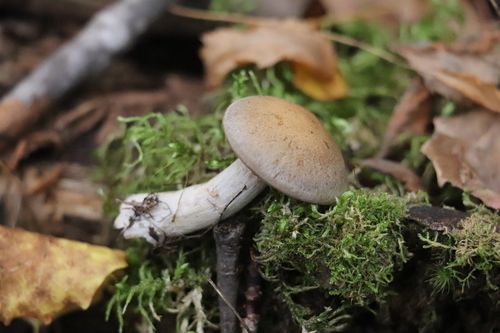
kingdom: Fungi
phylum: Basidiomycota
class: Agaricomycetes
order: Agaricales
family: Cortinariaceae
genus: Thaxterogaster
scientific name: Thaxterogaster porphyropus
